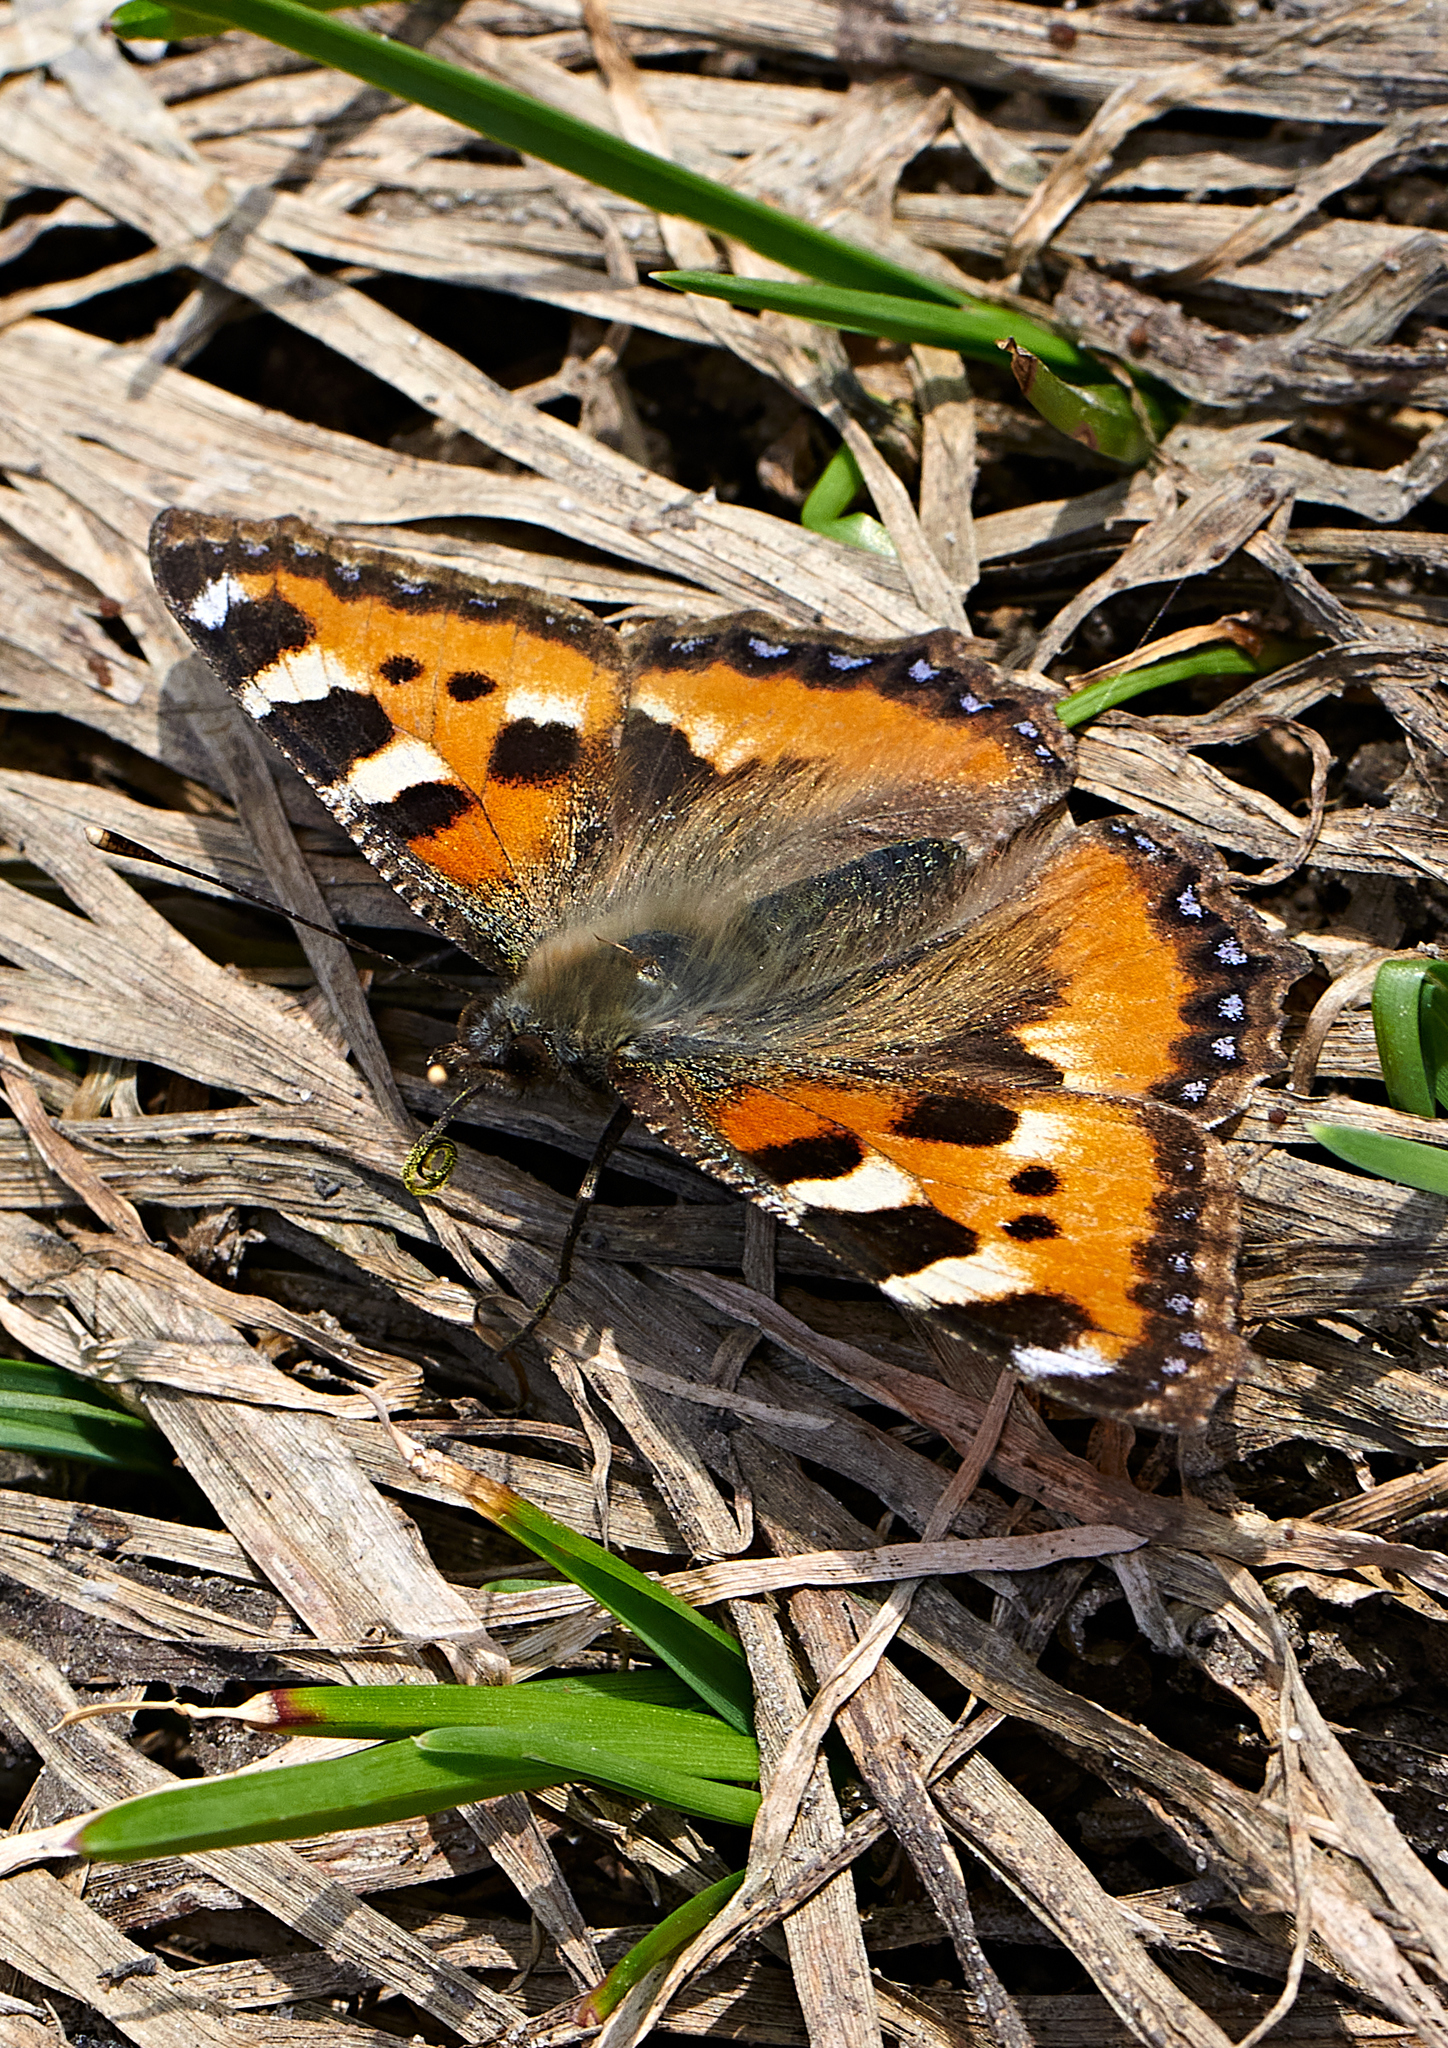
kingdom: Animalia
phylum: Arthropoda
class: Insecta
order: Lepidoptera
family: Nymphalidae
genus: Aglais
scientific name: Aglais urticae
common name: Small tortoiseshell
